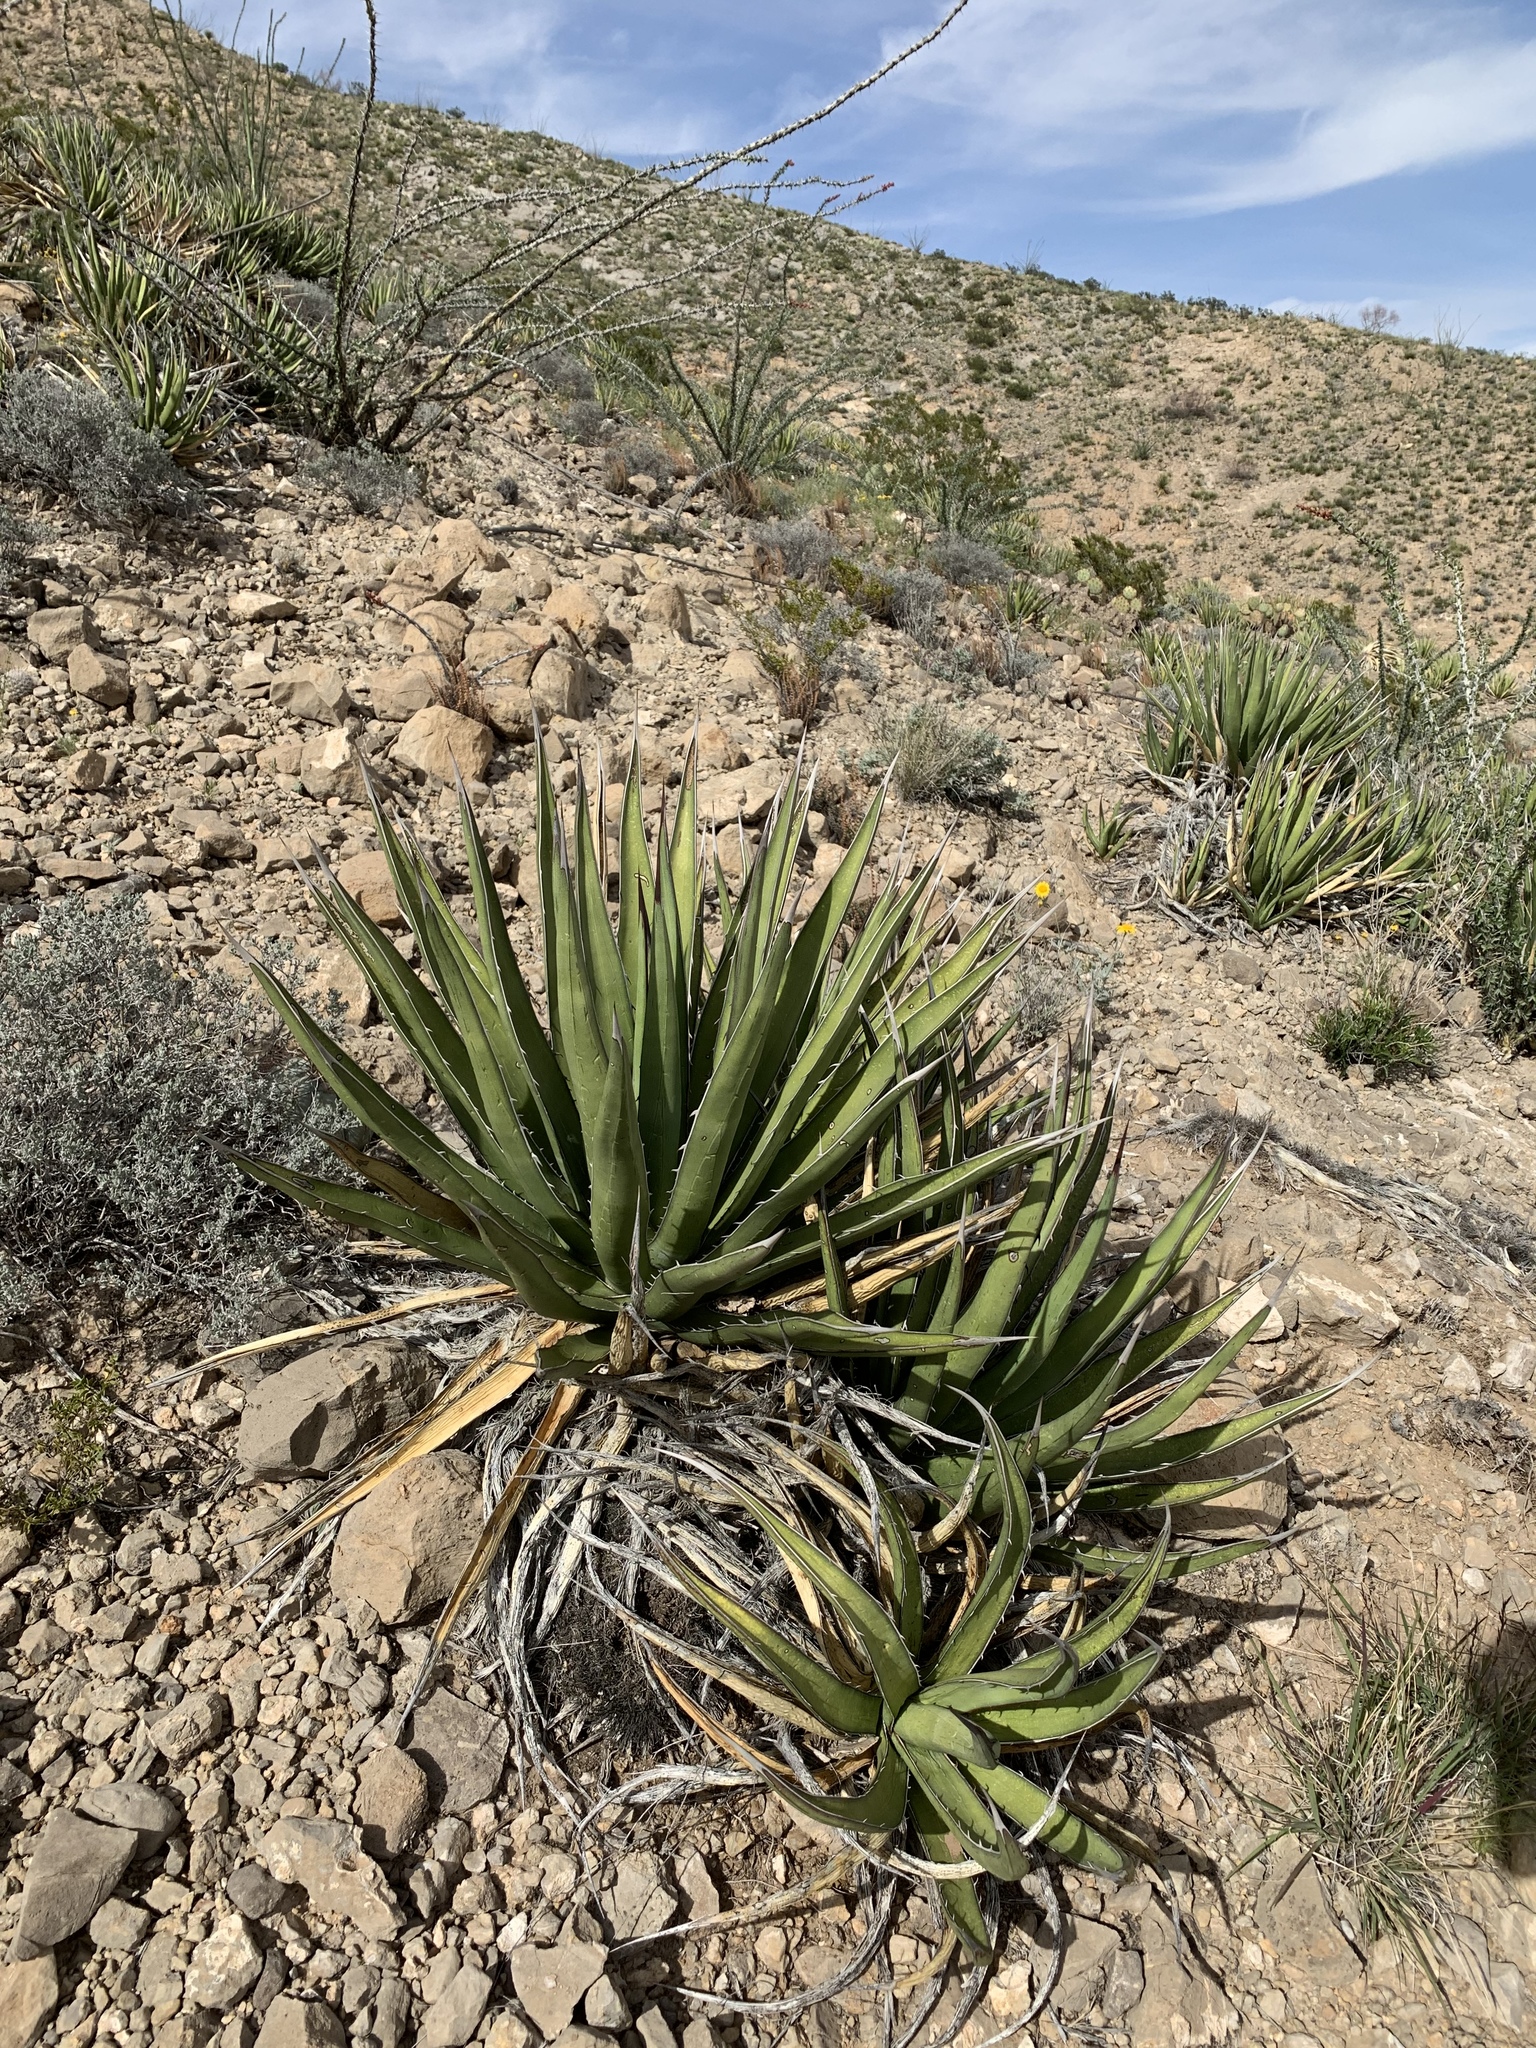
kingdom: Plantae
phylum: Tracheophyta
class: Liliopsida
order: Asparagales
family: Asparagaceae
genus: Agave
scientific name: Agave lechuguilla
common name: Lecheguilla agave
